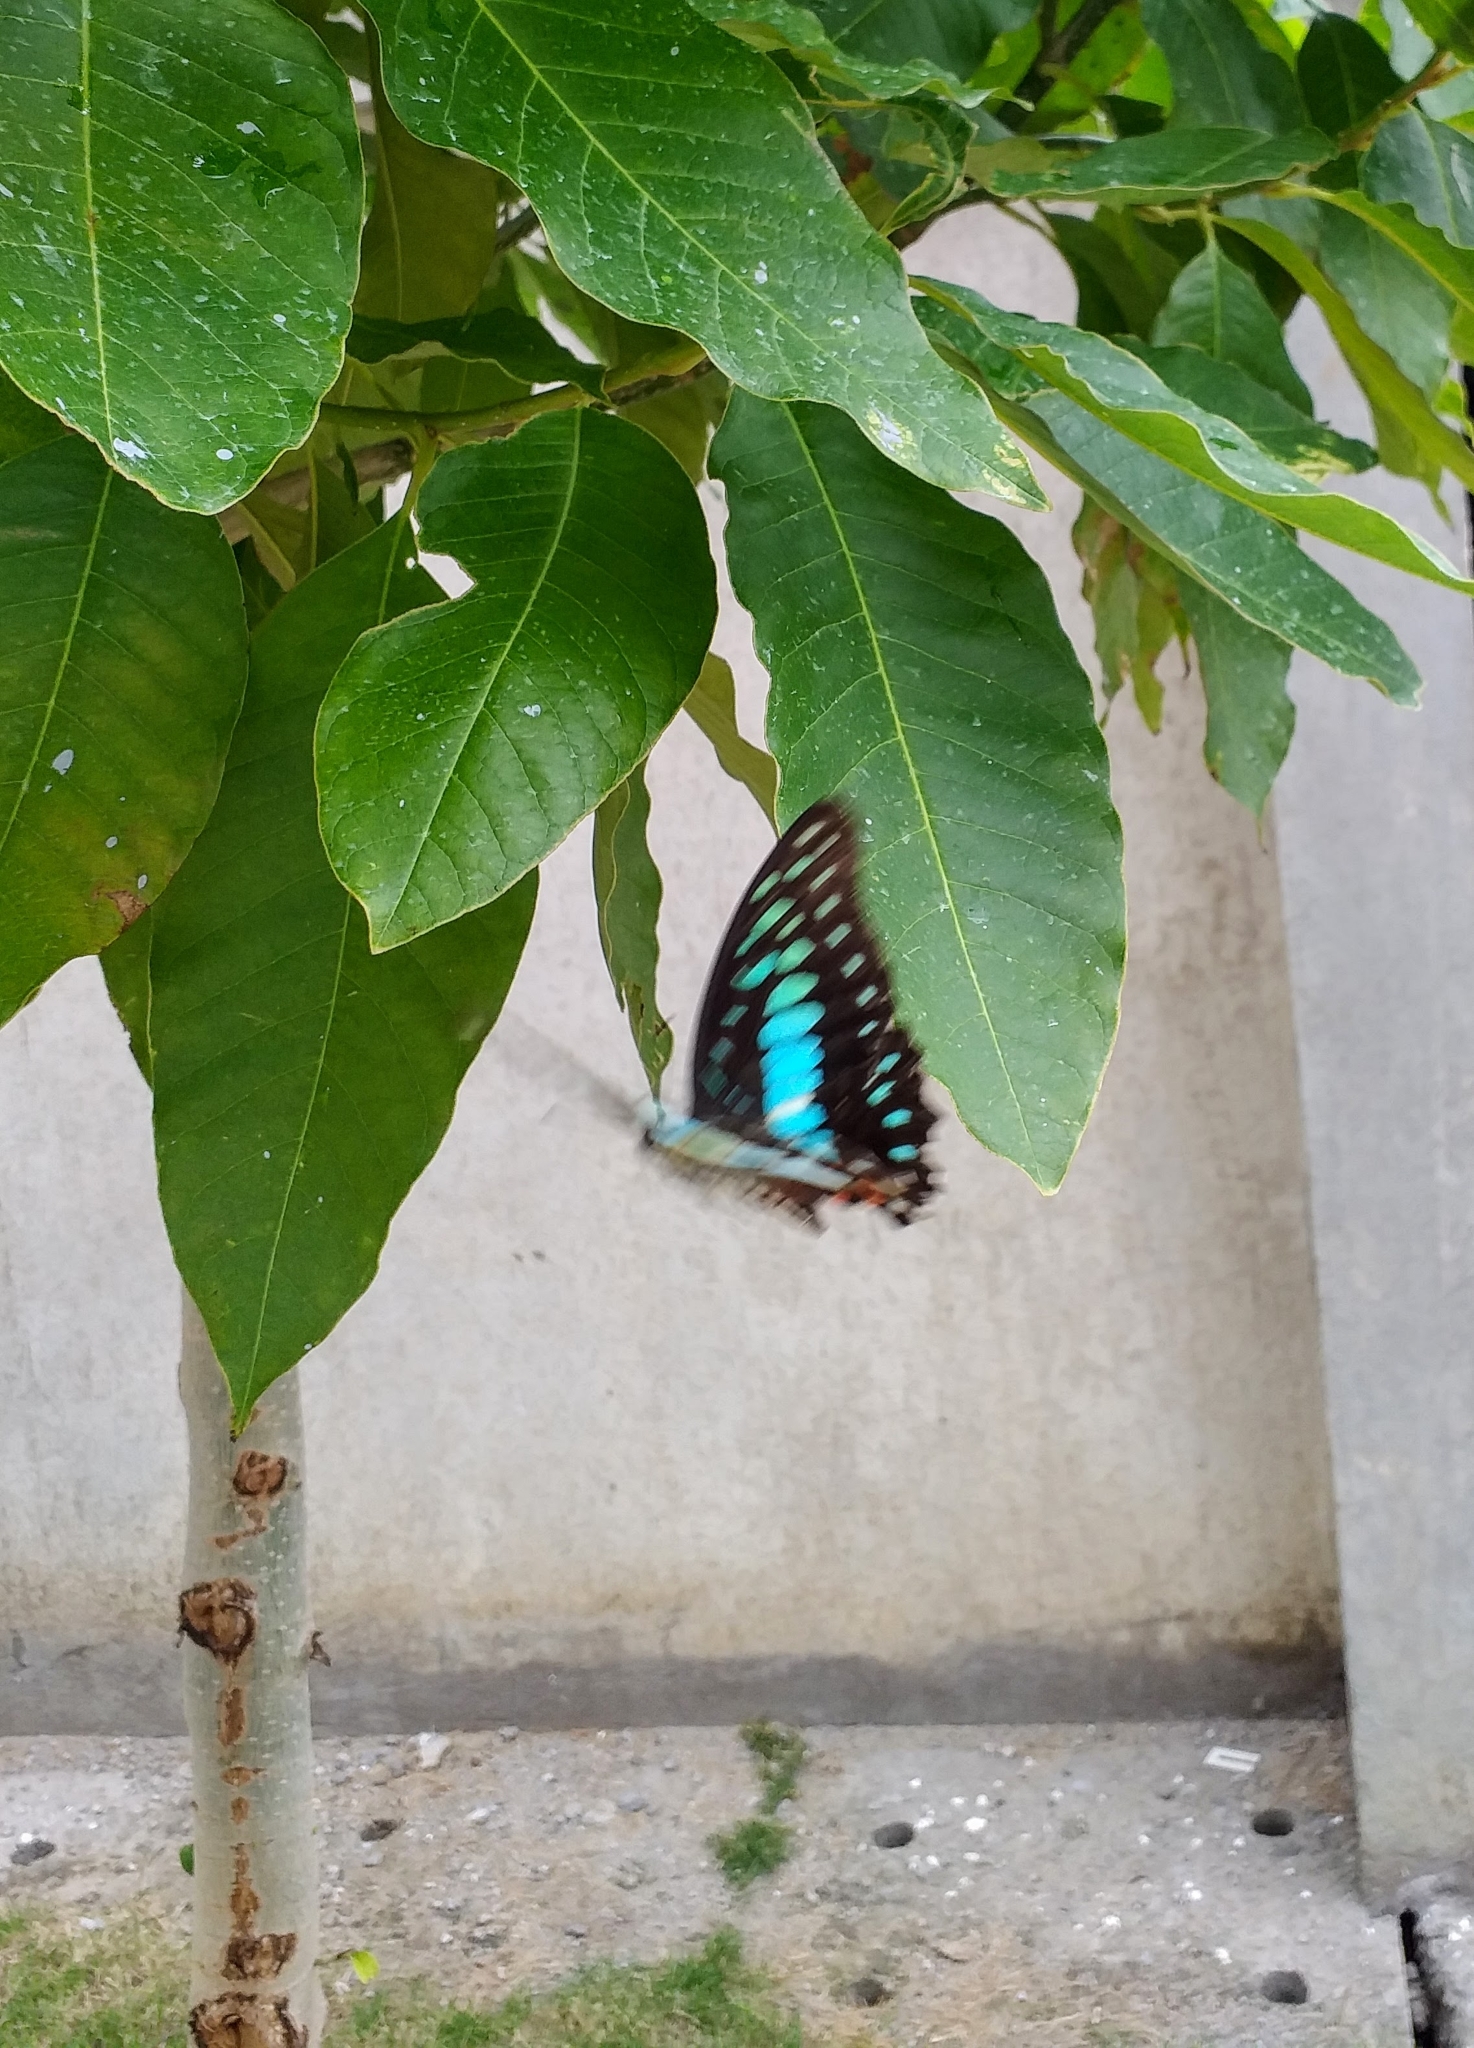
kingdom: Animalia
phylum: Arthropoda
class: Insecta
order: Lepidoptera
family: Papilionidae
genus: Graphium
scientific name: Graphium doson
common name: Common jay
